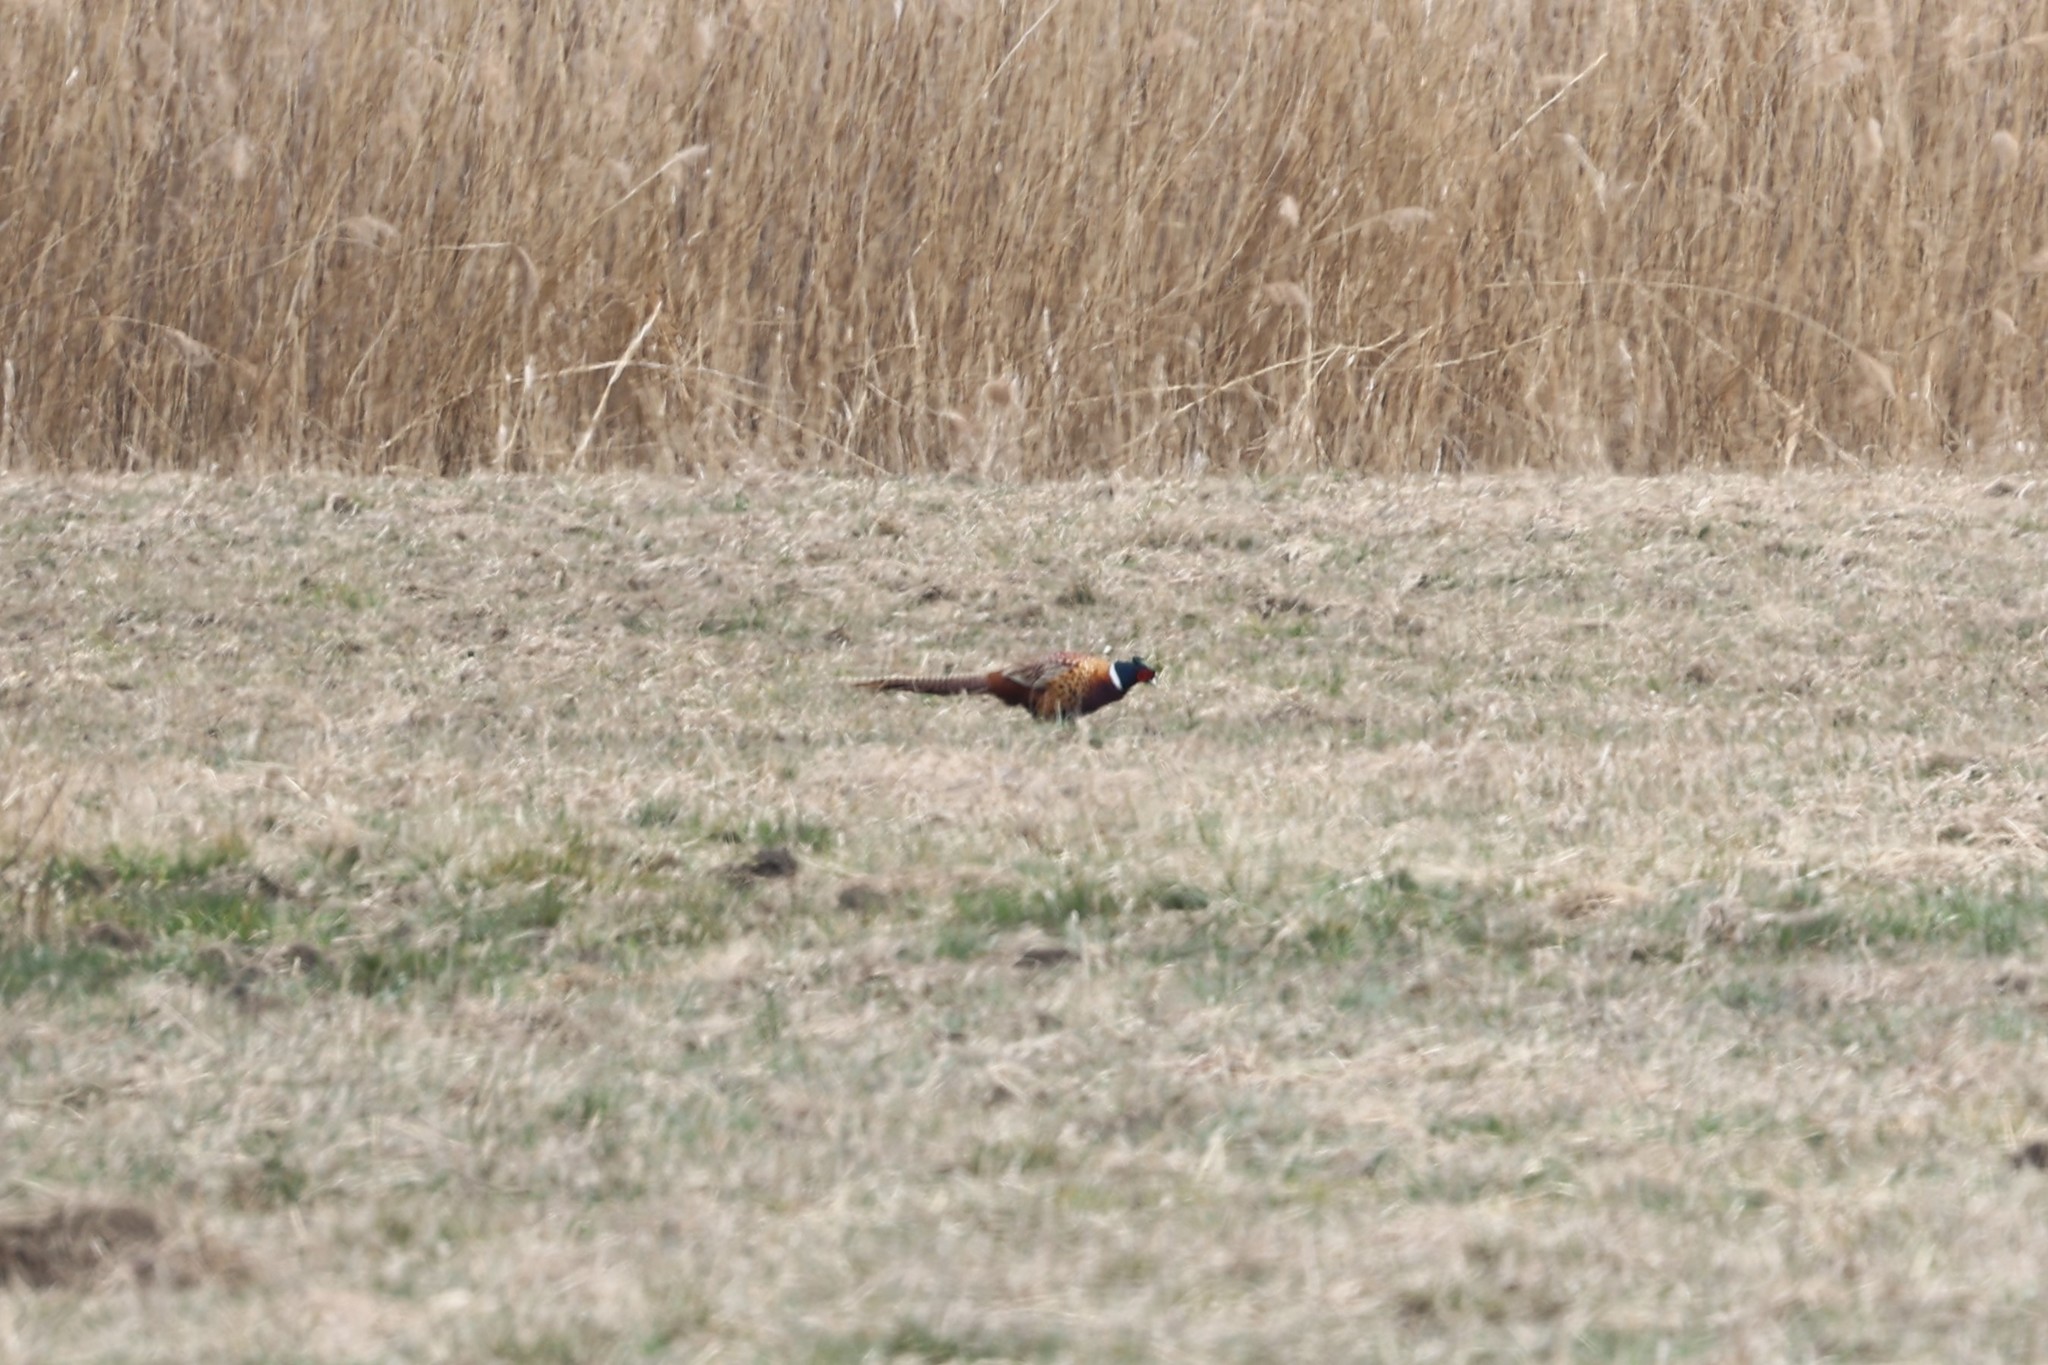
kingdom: Animalia
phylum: Chordata
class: Aves
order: Galliformes
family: Phasianidae
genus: Phasianus
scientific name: Phasianus colchicus
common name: Common pheasant
